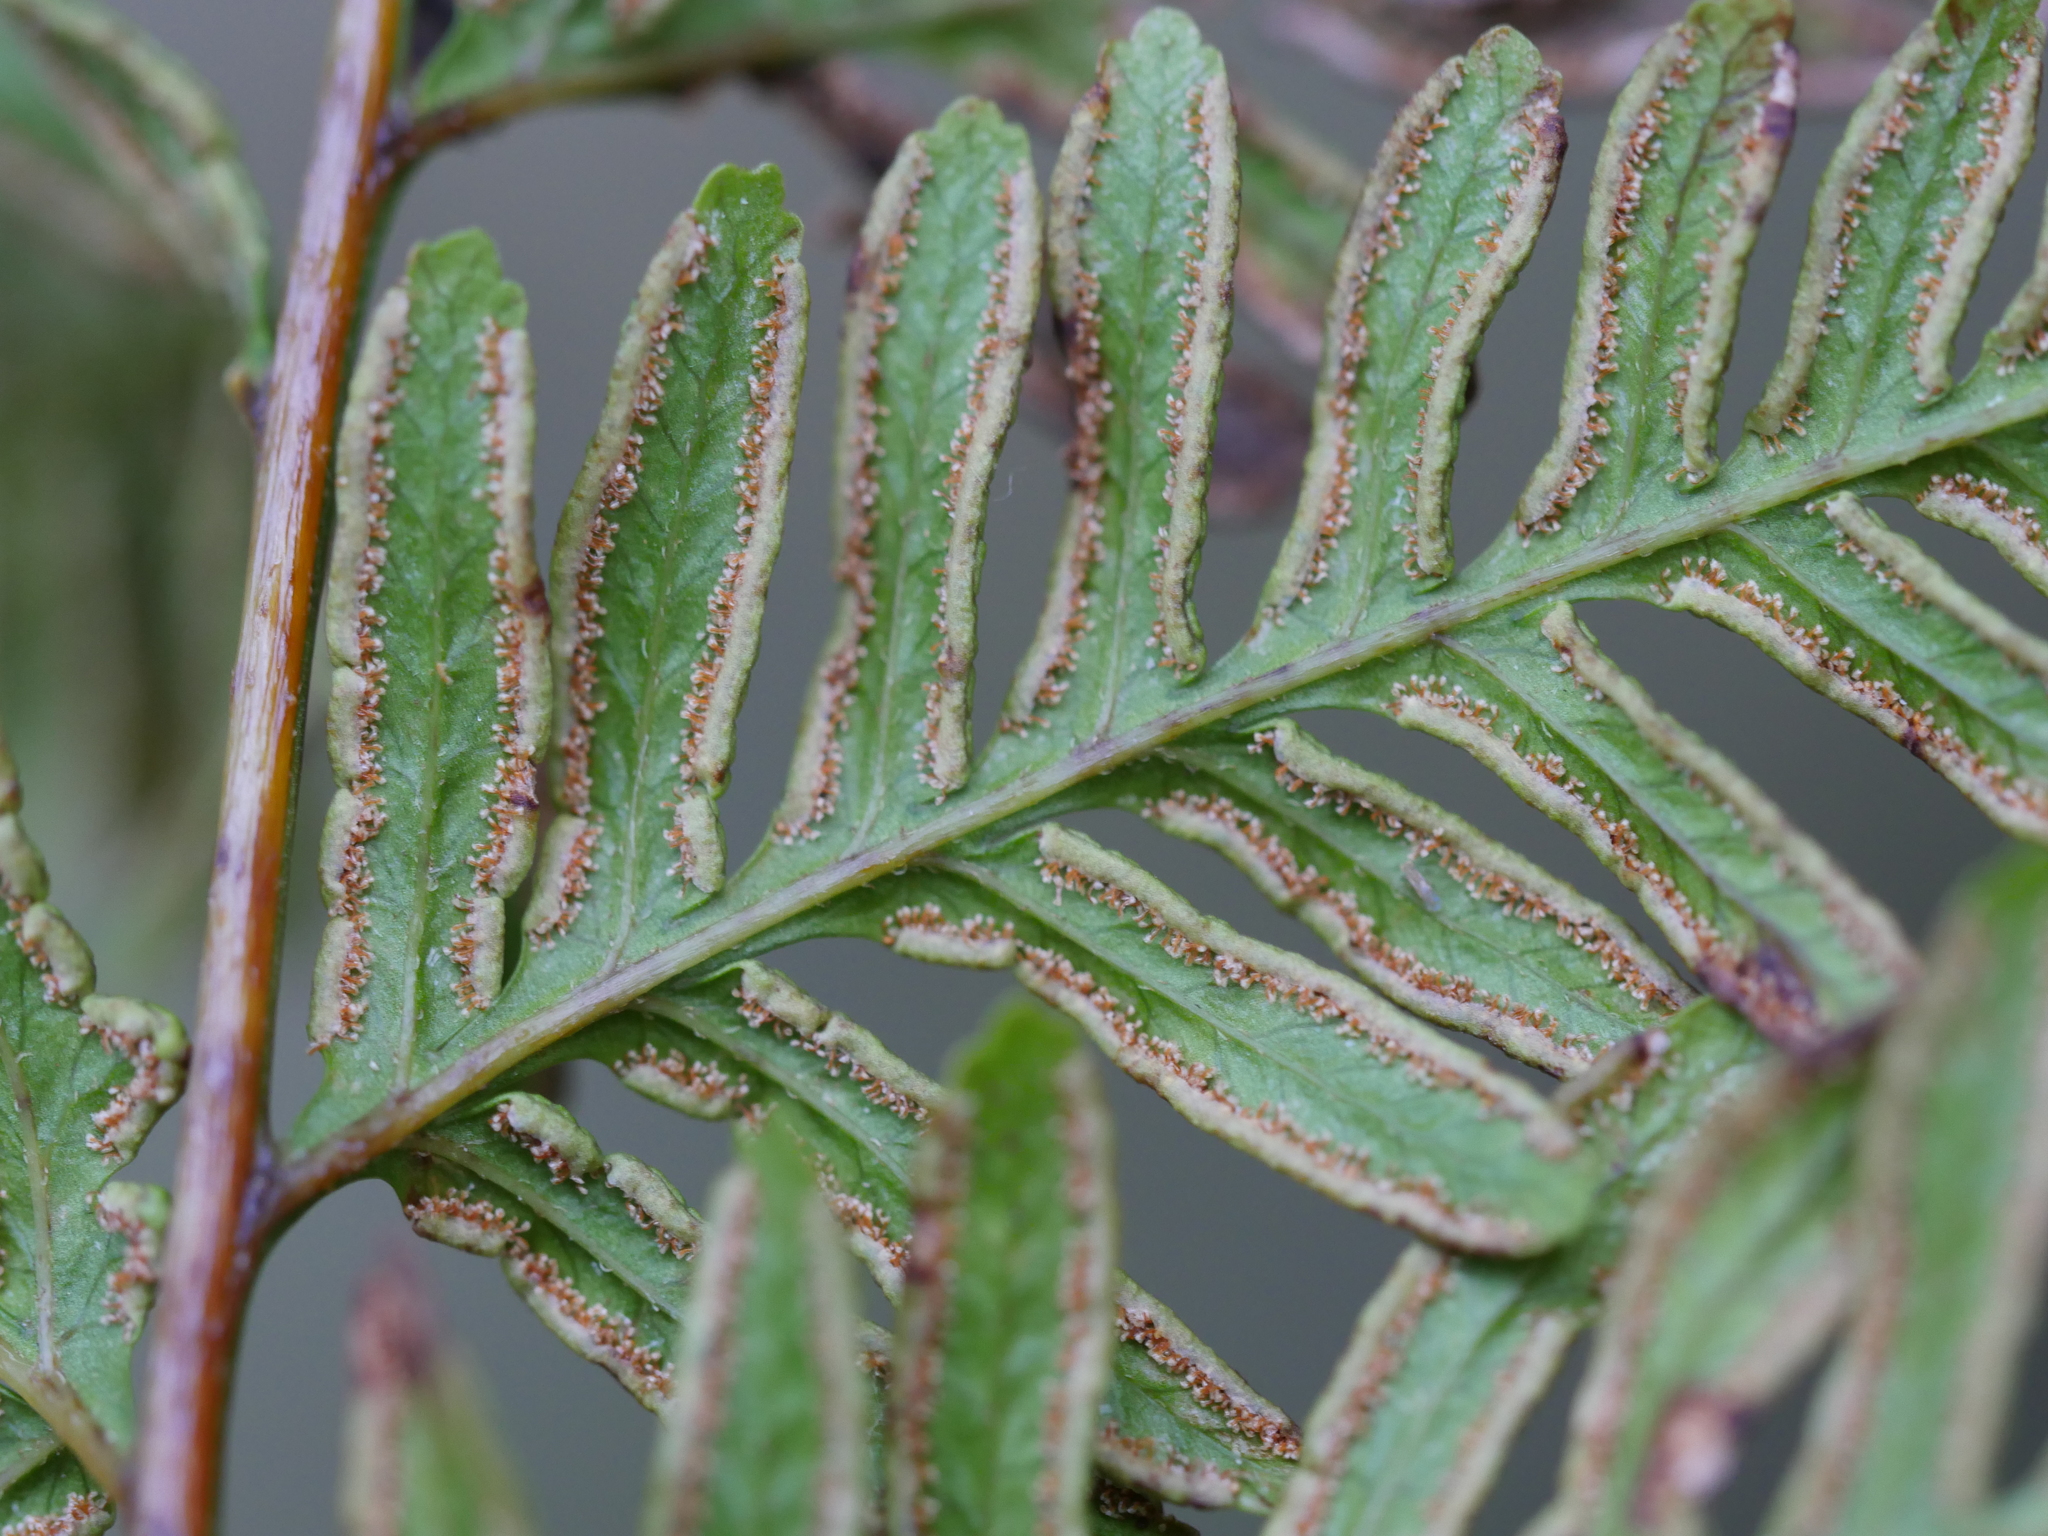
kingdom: Plantae
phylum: Tracheophyta
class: Polypodiopsida
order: Polypodiales
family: Pteridaceae
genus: Pteris
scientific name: Pteris tremula
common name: Australian brake
